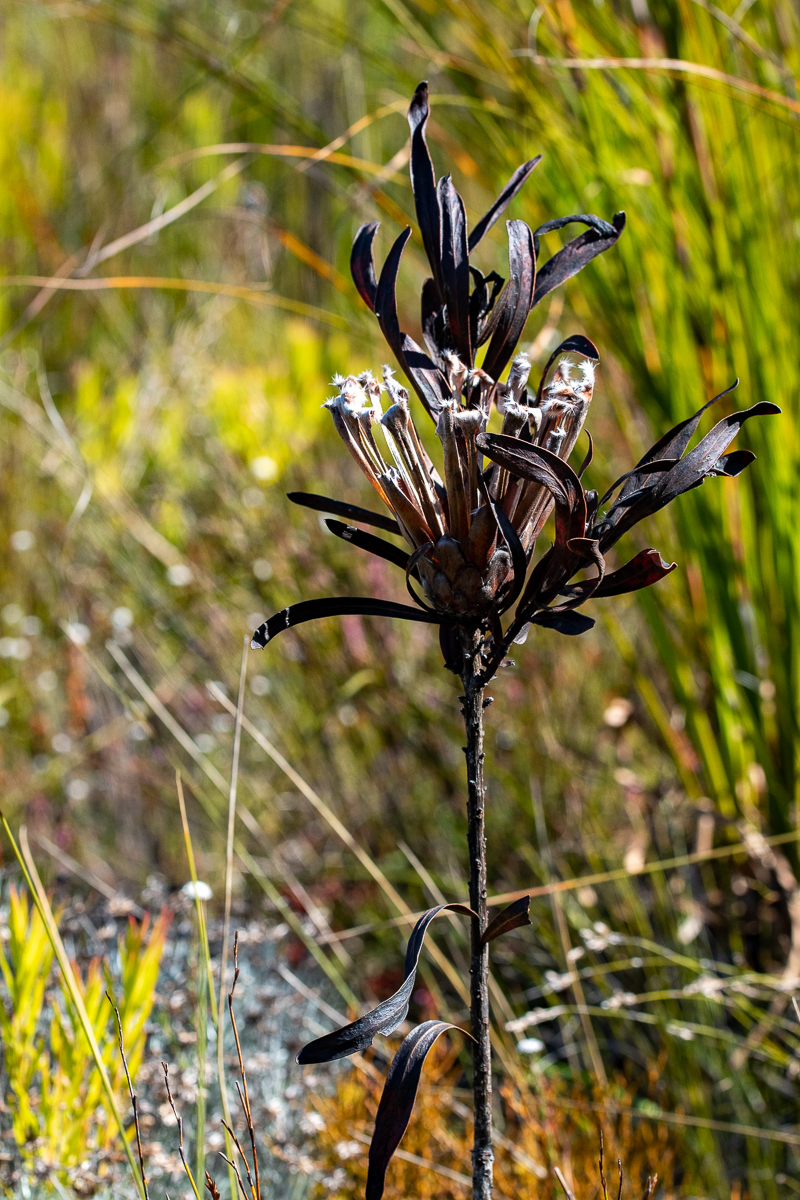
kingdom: Plantae
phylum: Tracheophyta
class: Magnoliopsida
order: Proteales
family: Proteaceae
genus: Protea
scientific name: Protea coronata
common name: Green sugarbush
